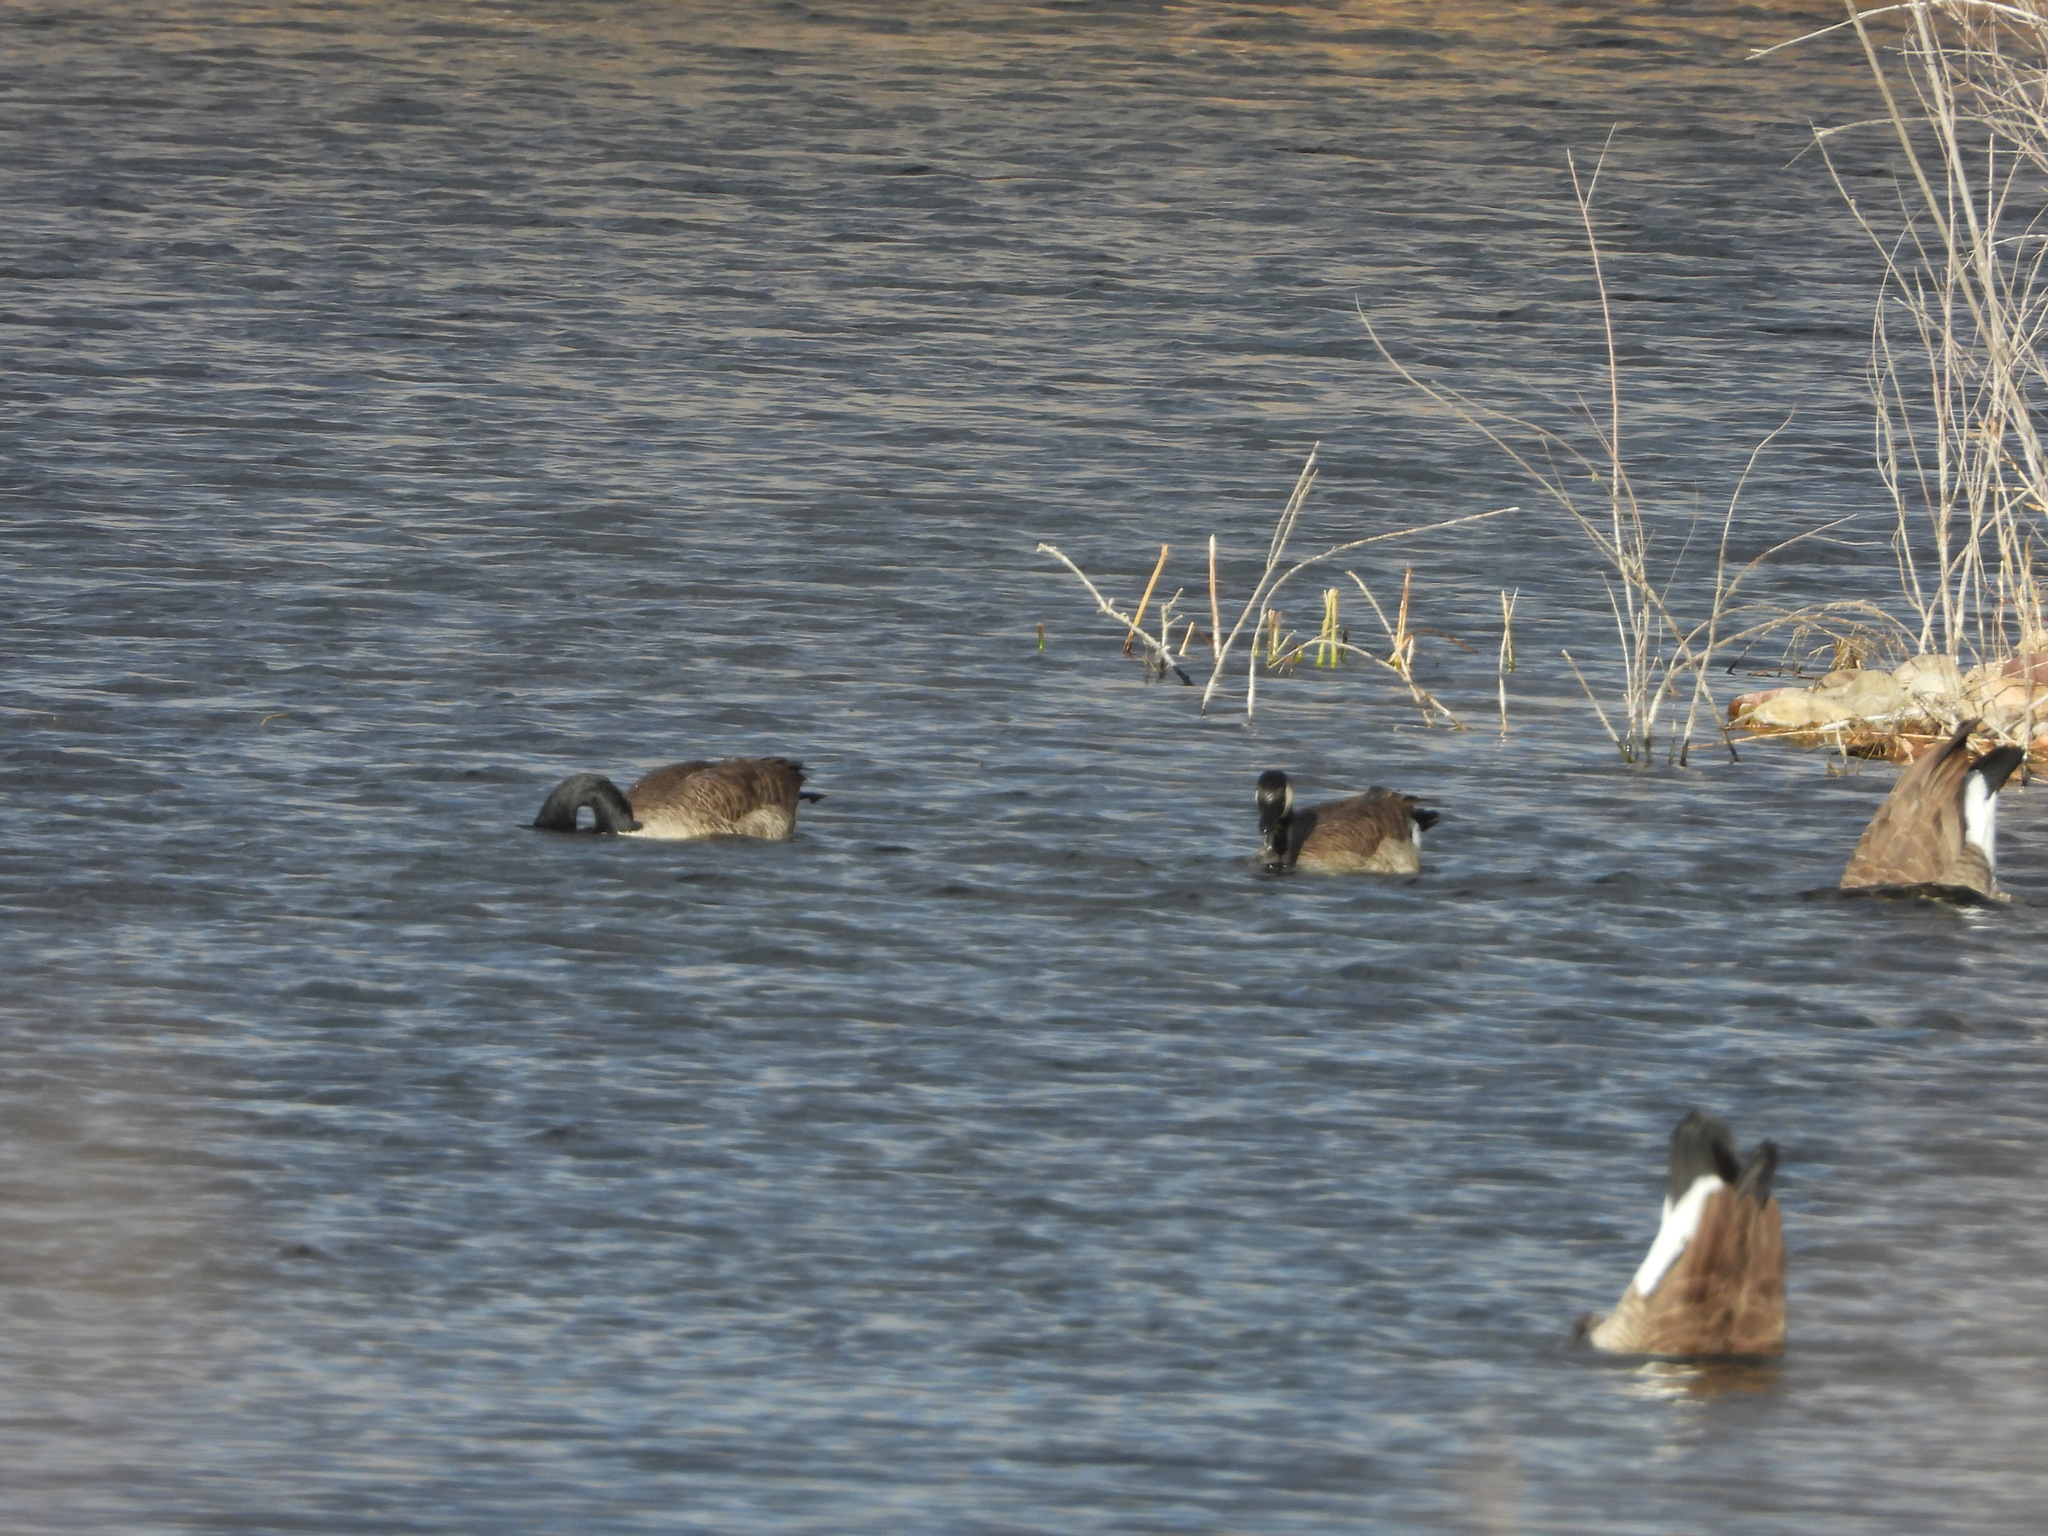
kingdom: Animalia
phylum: Chordata
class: Aves
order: Anseriformes
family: Anatidae
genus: Branta
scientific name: Branta canadensis
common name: Canada goose
